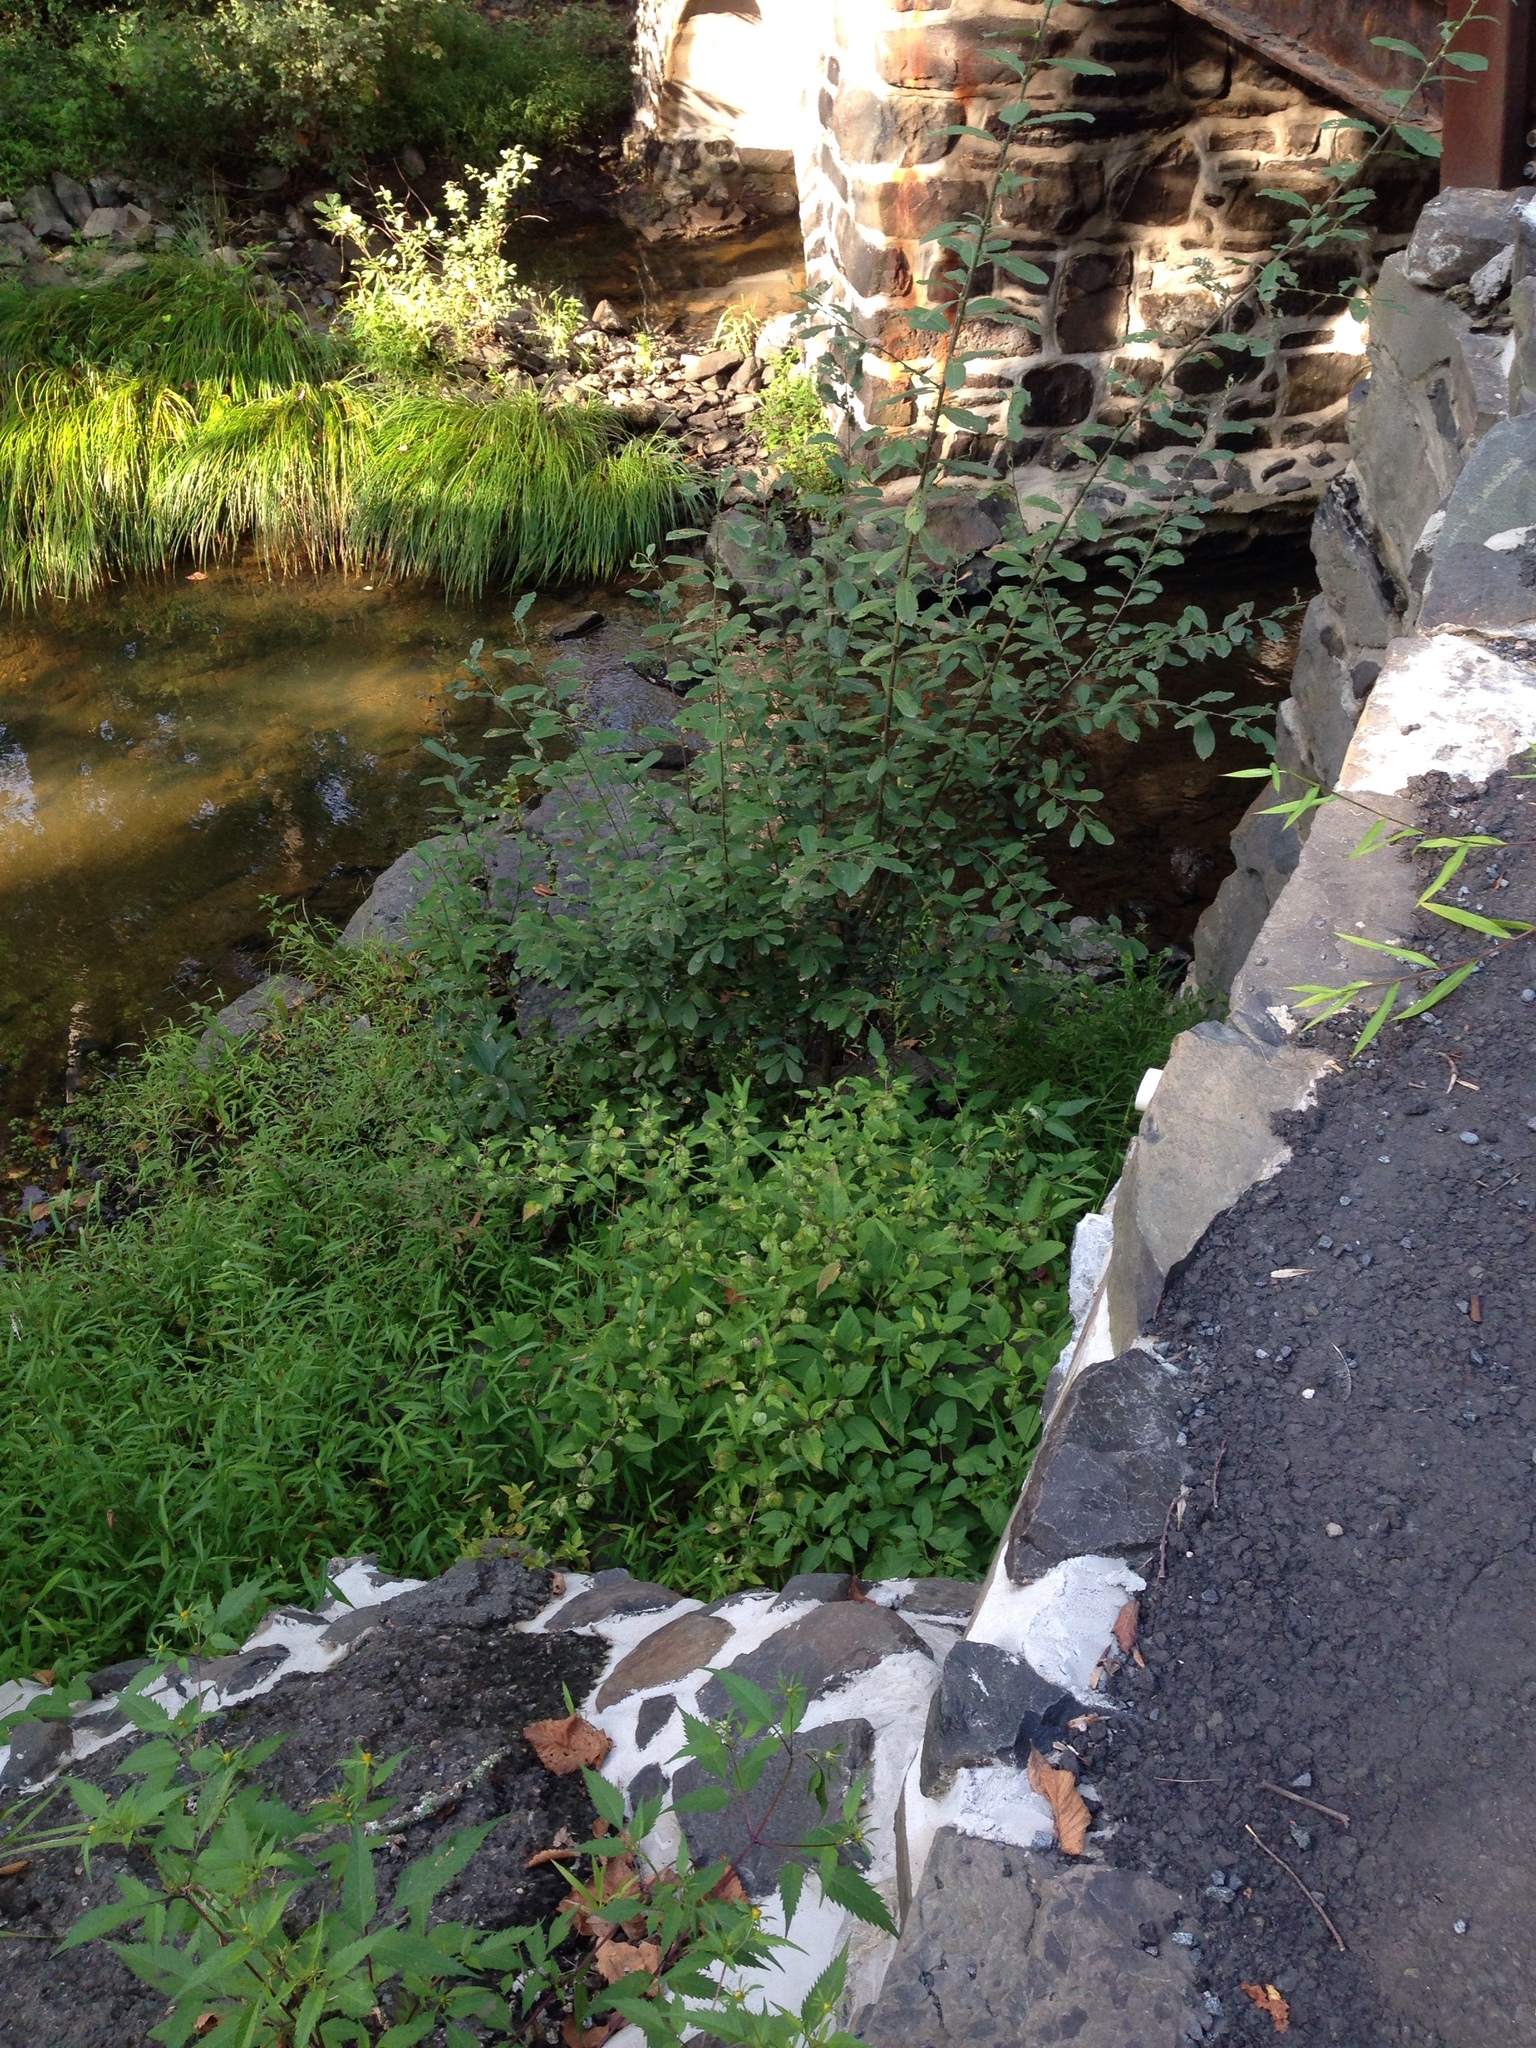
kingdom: Plantae
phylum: Tracheophyta
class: Magnoliopsida
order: Solanales
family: Solanaceae
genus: Physalis
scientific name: Physalis longifolia
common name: Common ground-cherry
